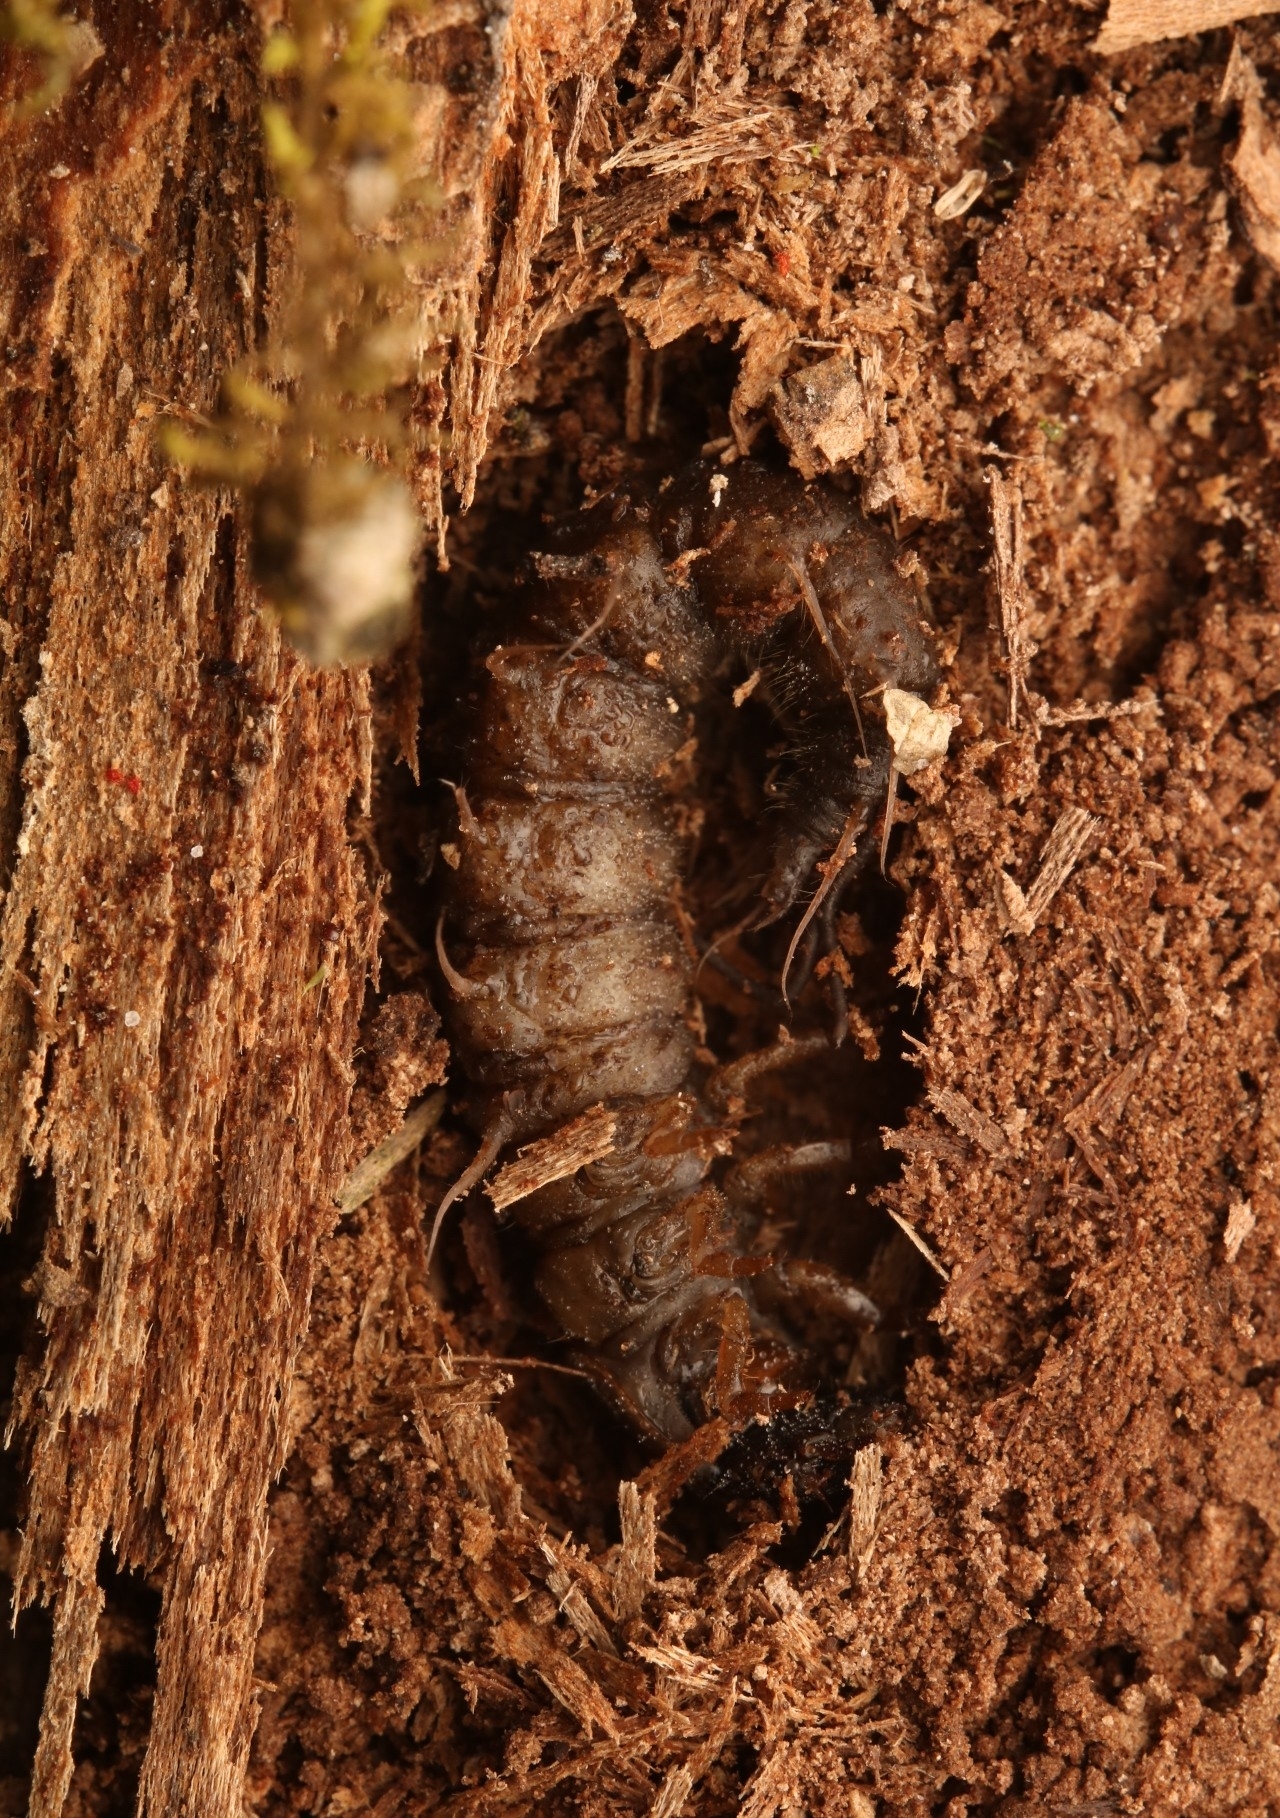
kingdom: Animalia
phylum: Arthropoda
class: Insecta
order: Megaloptera
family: Corydalidae
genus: Chauliodes
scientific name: Chauliodes
